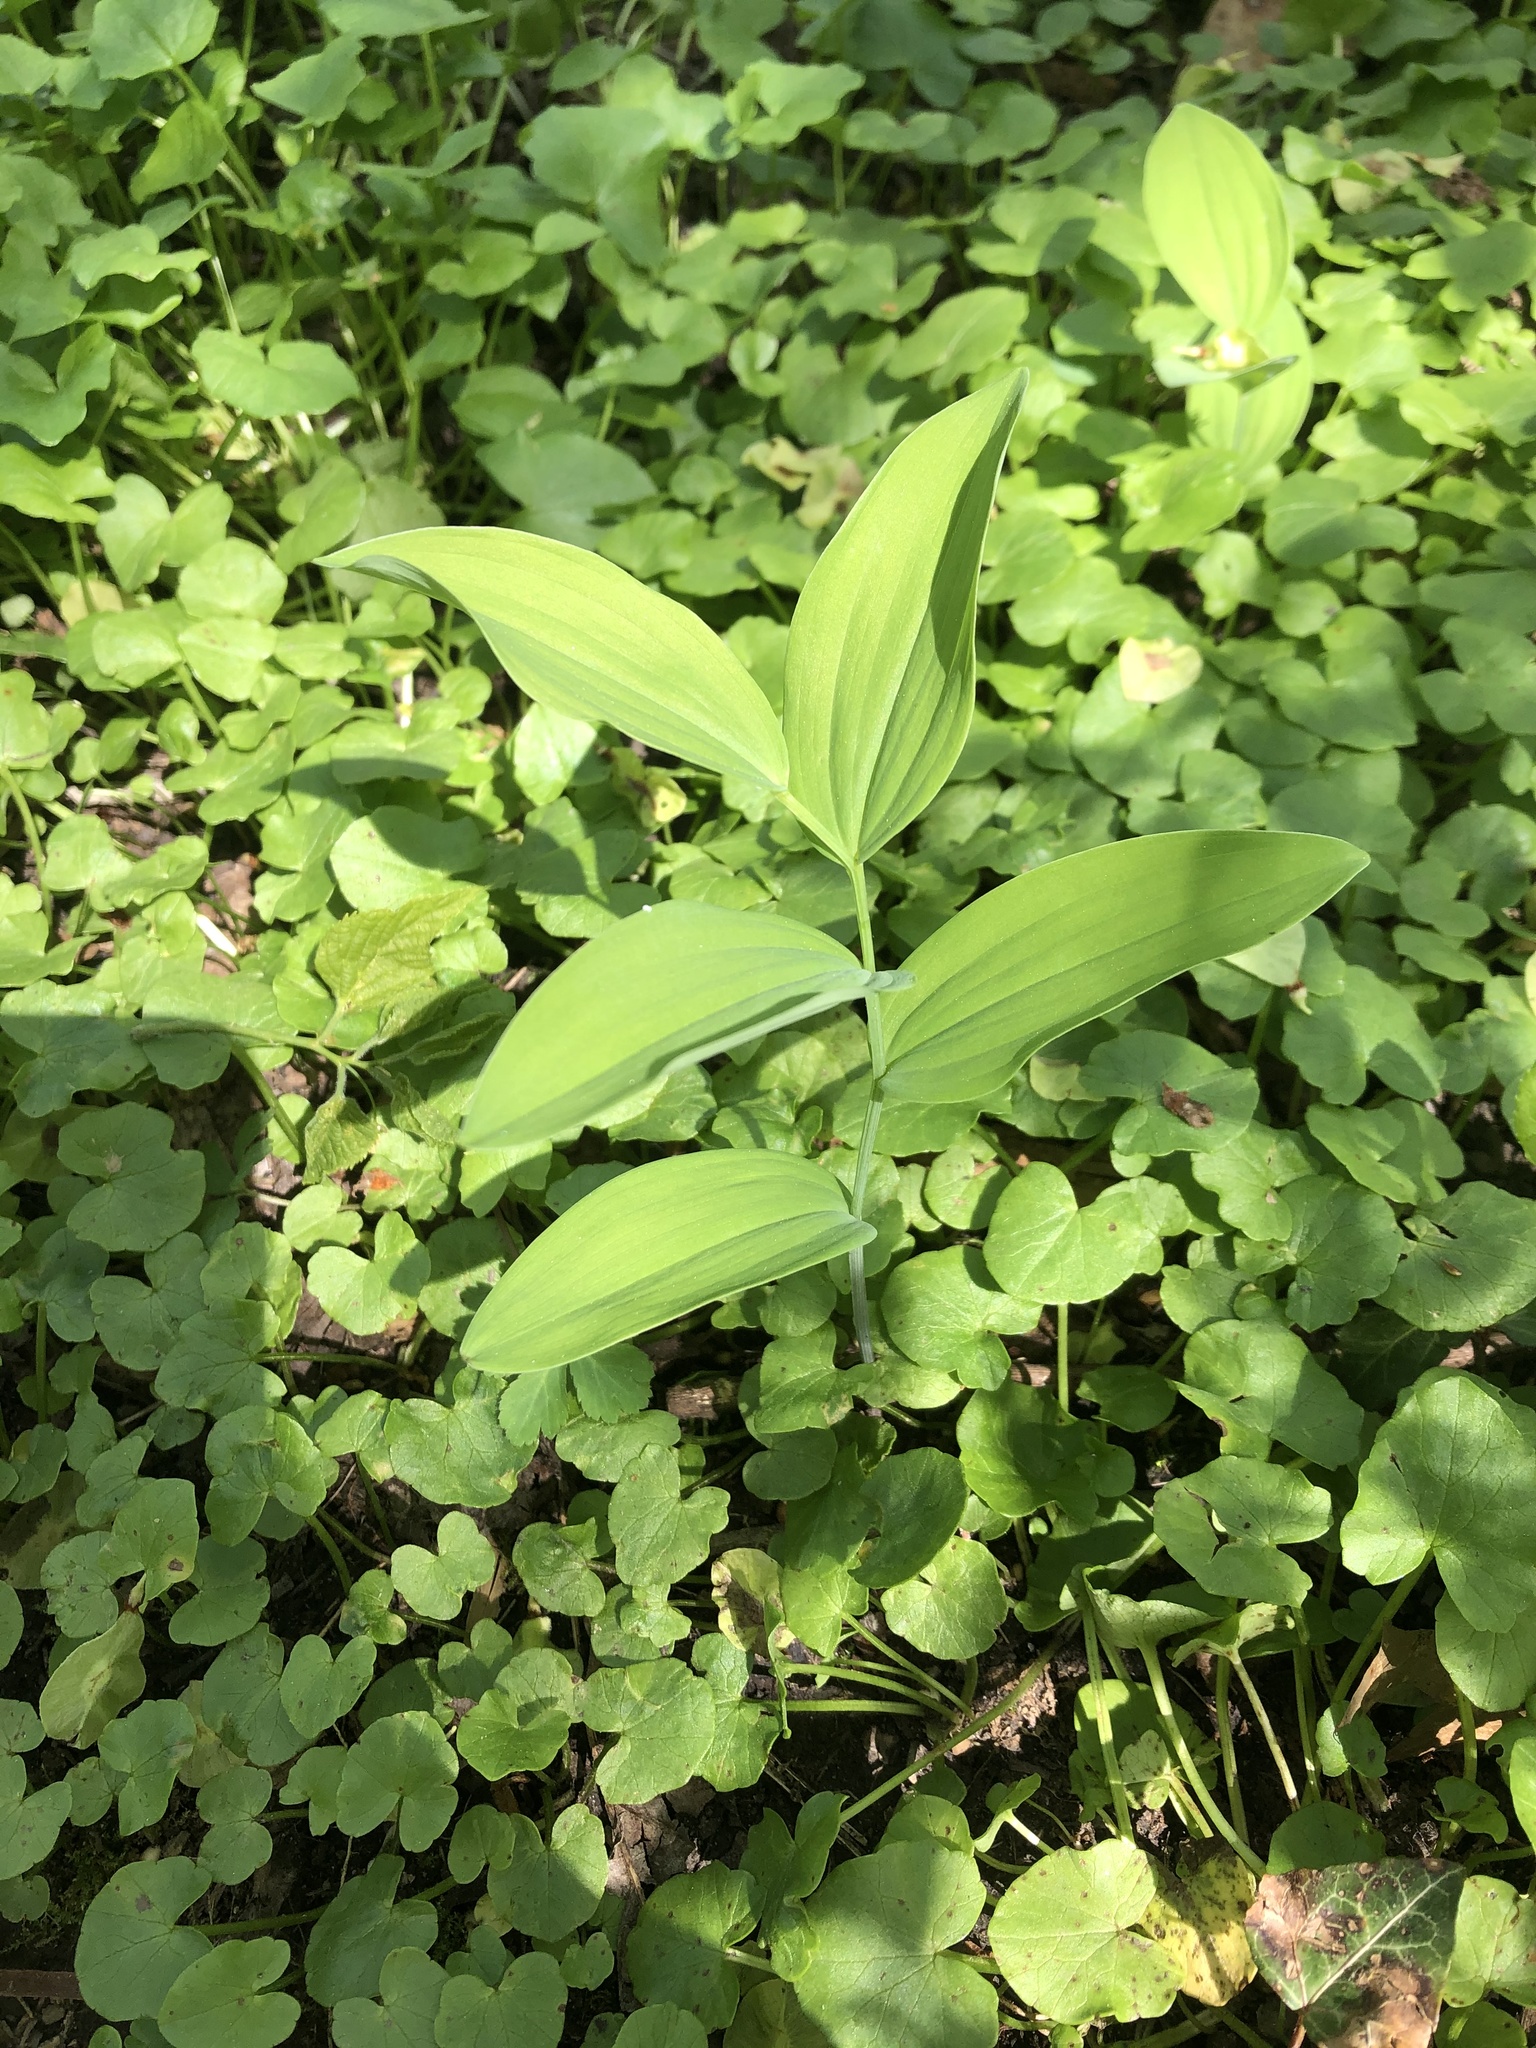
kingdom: Plantae
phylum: Tracheophyta
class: Liliopsida
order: Asparagales
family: Asparagaceae
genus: Polygonatum
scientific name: Polygonatum biflorum
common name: American solomon's-seal
